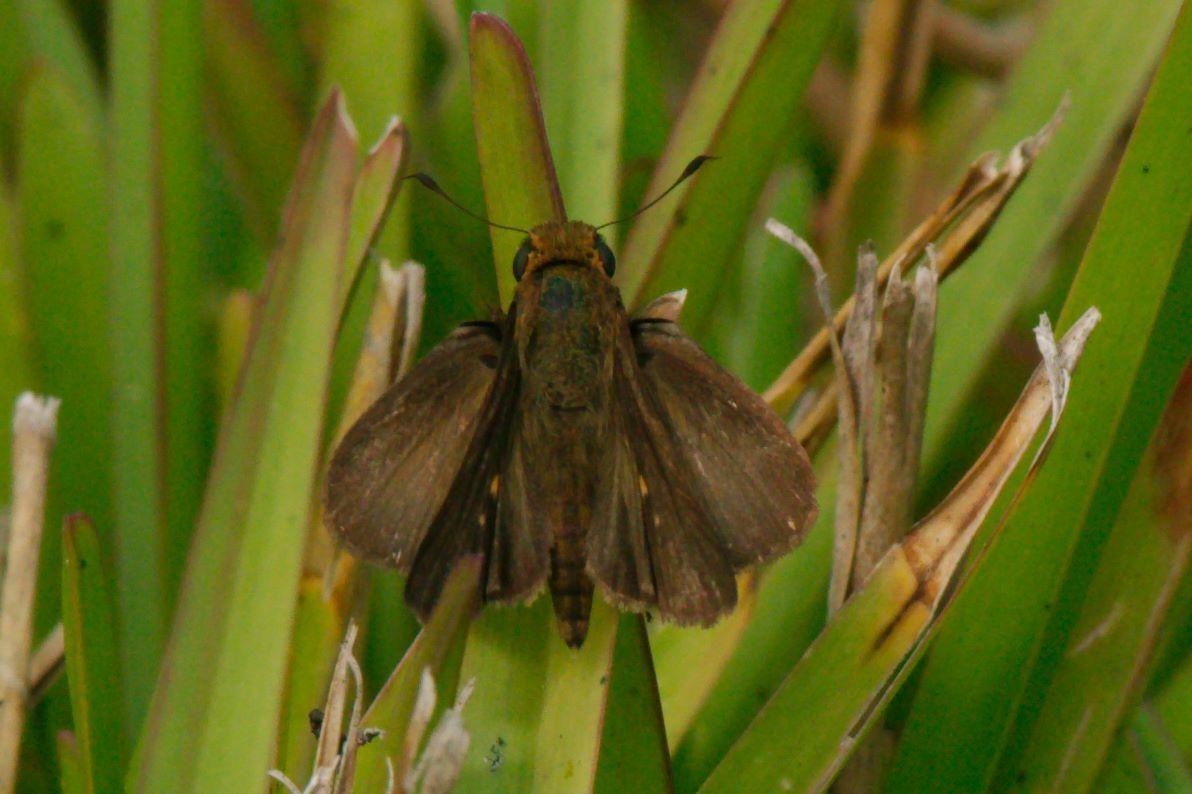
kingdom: Animalia
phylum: Arthropoda
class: Insecta
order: Lepidoptera
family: Hesperiidae
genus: Panoquina
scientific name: Panoquina ocola
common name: Ocola skipper
